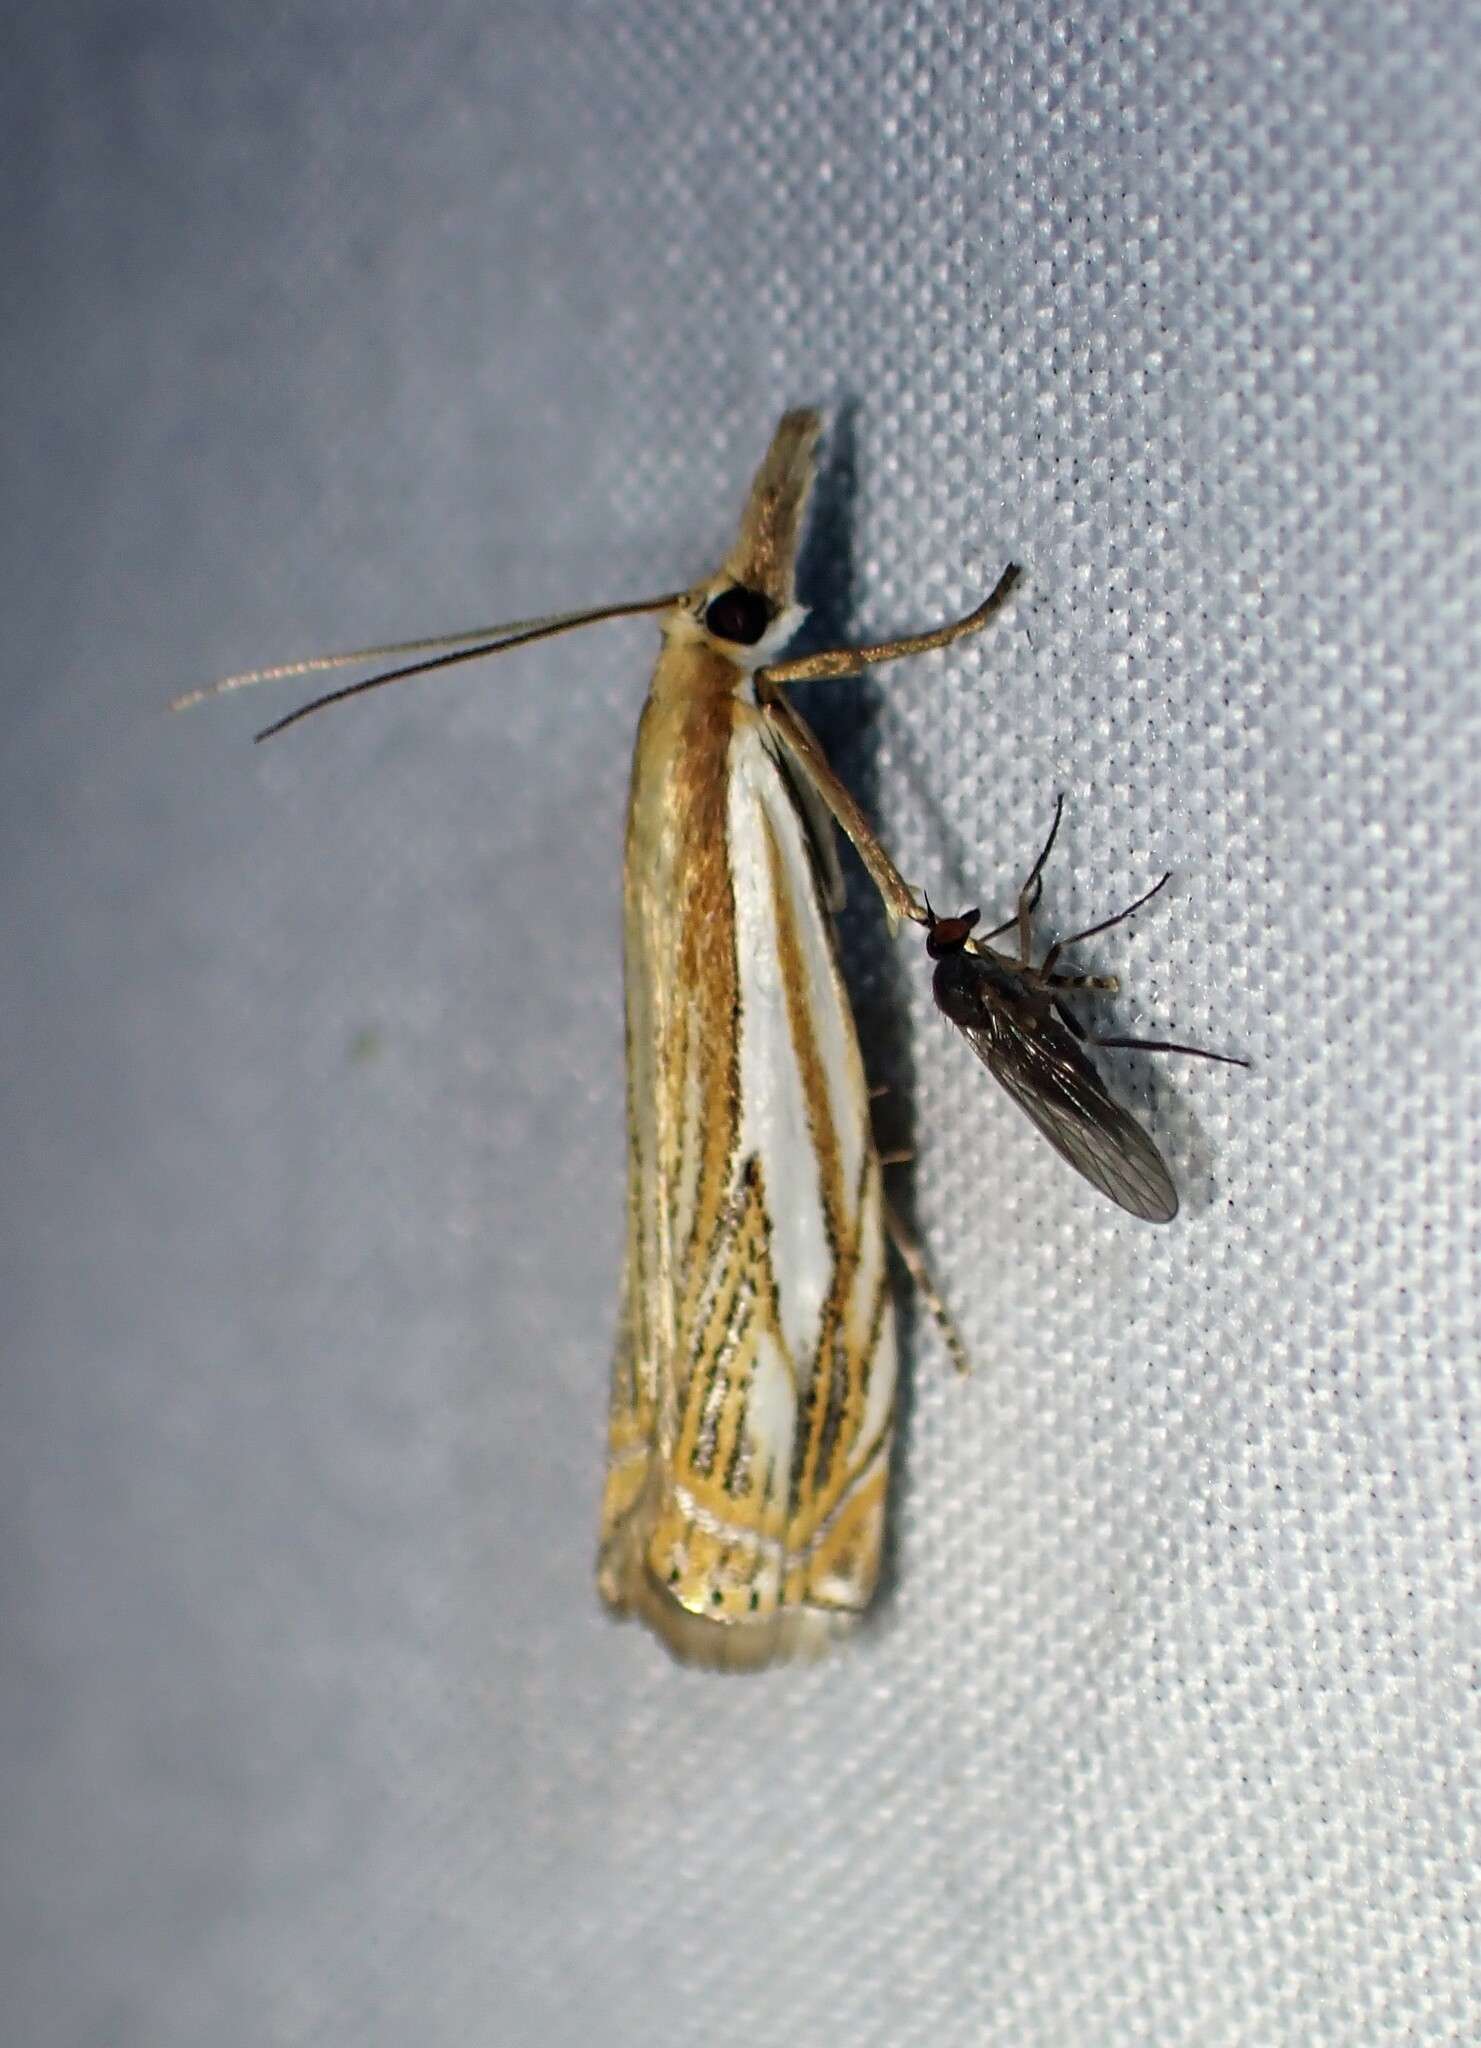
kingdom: Animalia
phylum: Arthropoda
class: Insecta
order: Lepidoptera
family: Crambidae
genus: Crambus
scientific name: Crambus saltuellus
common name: Pasture grass-veneer
